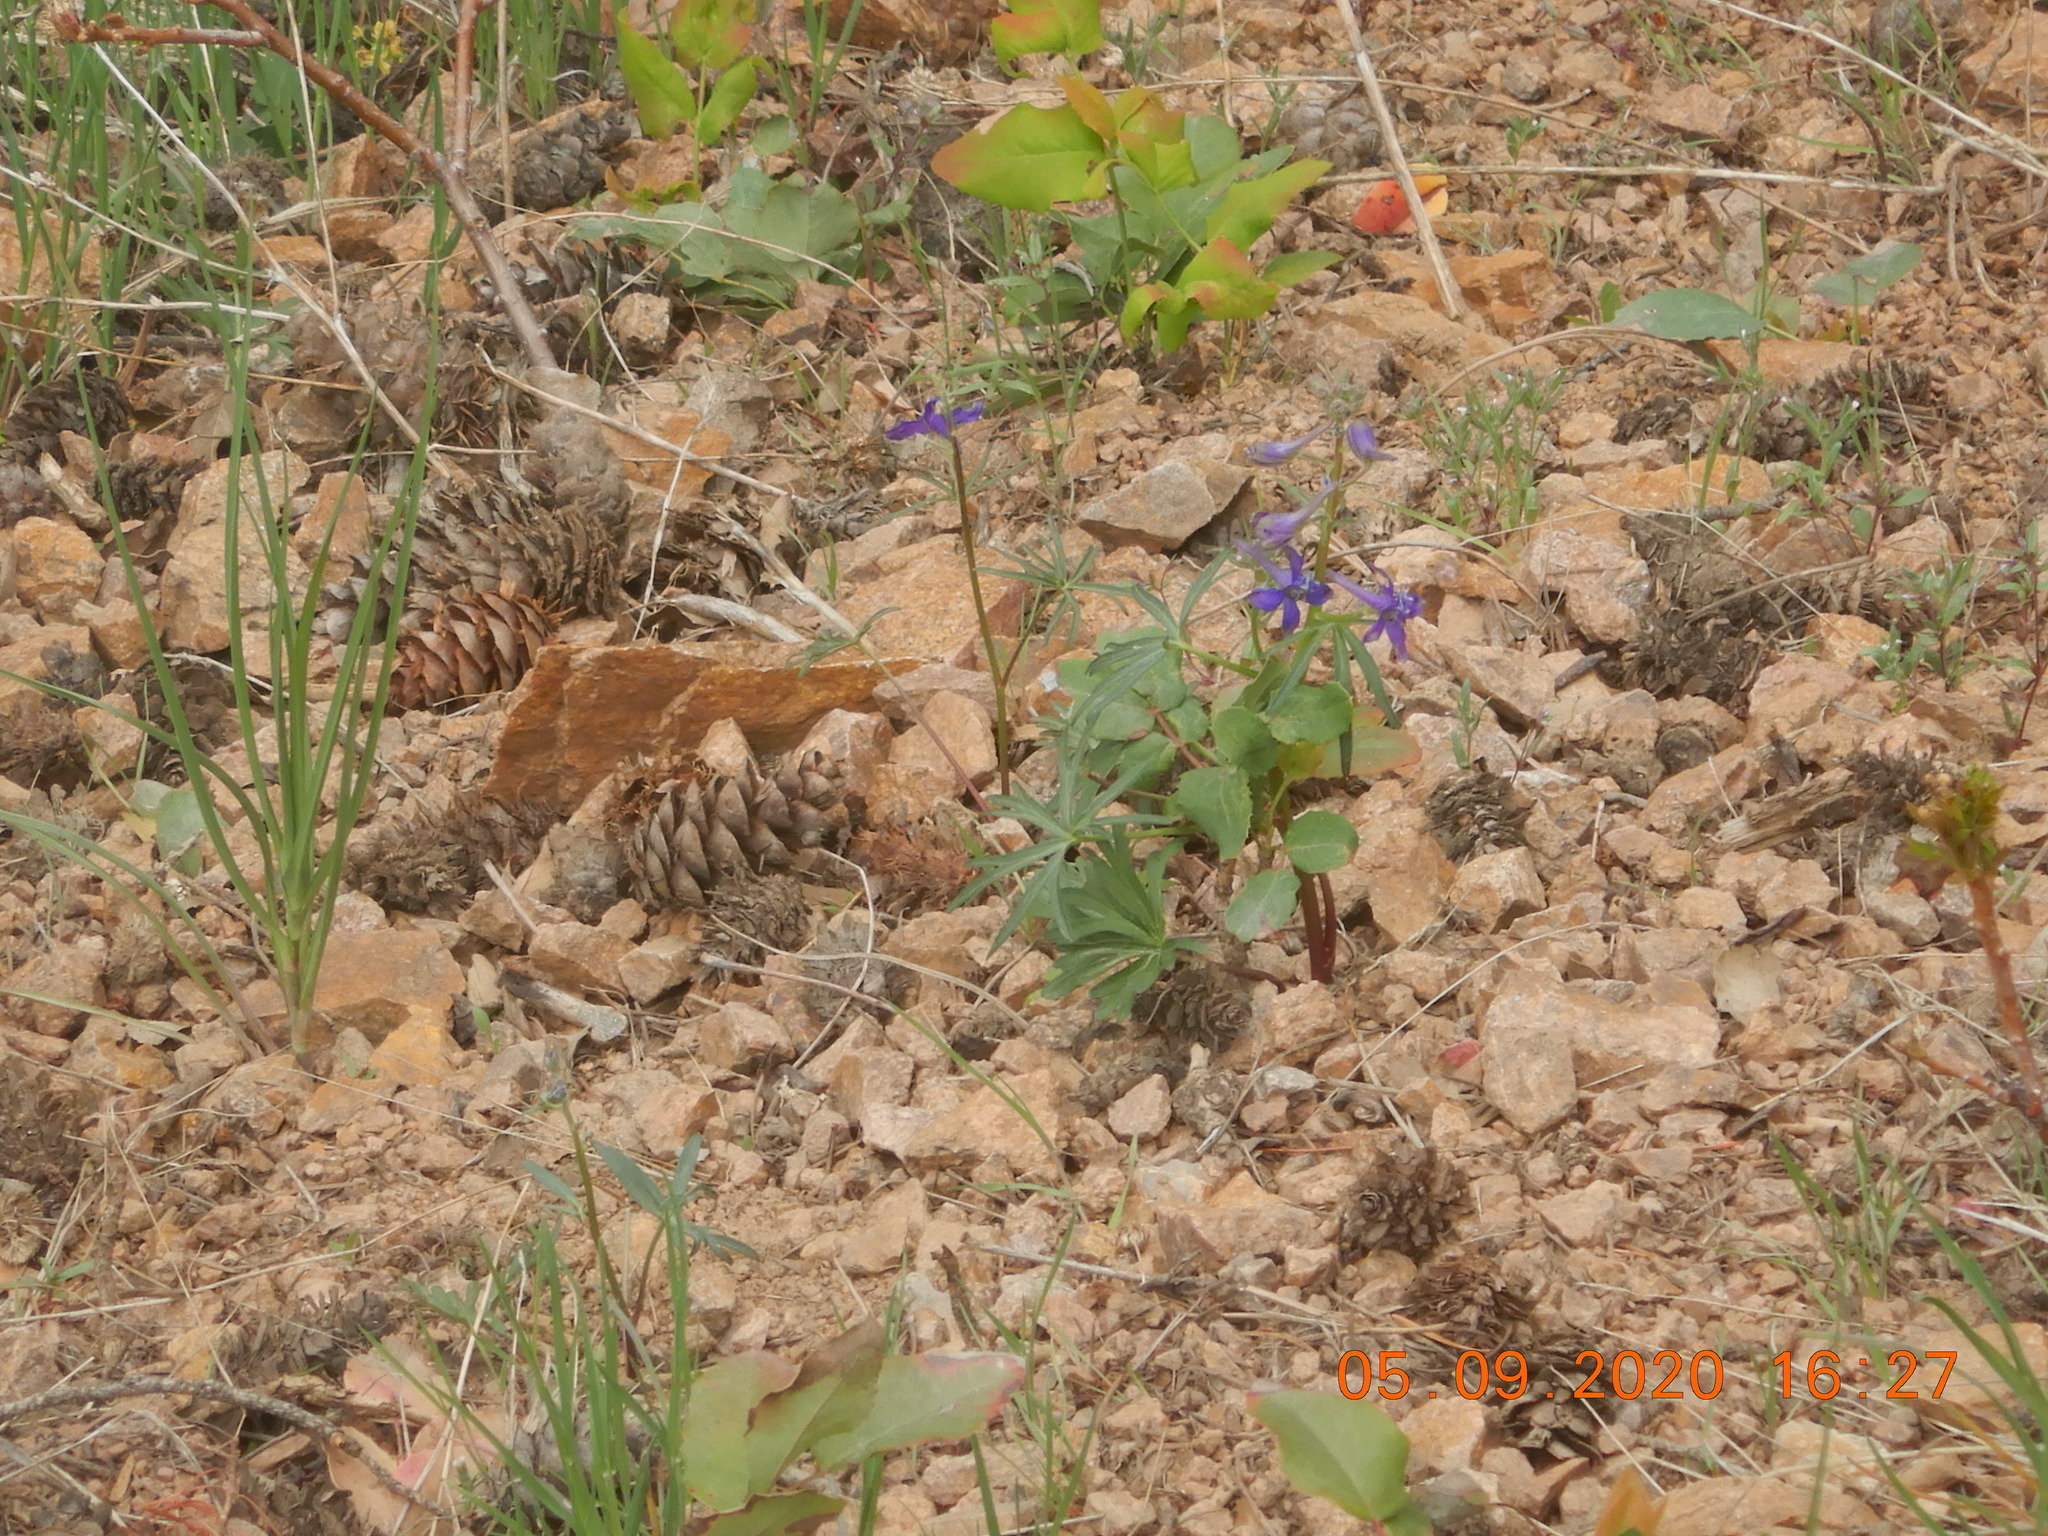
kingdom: Plantae
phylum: Tracheophyta
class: Magnoliopsida
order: Ranunculales
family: Ranunculaceae
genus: Delphinium
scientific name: Delphinium nuttallianum
